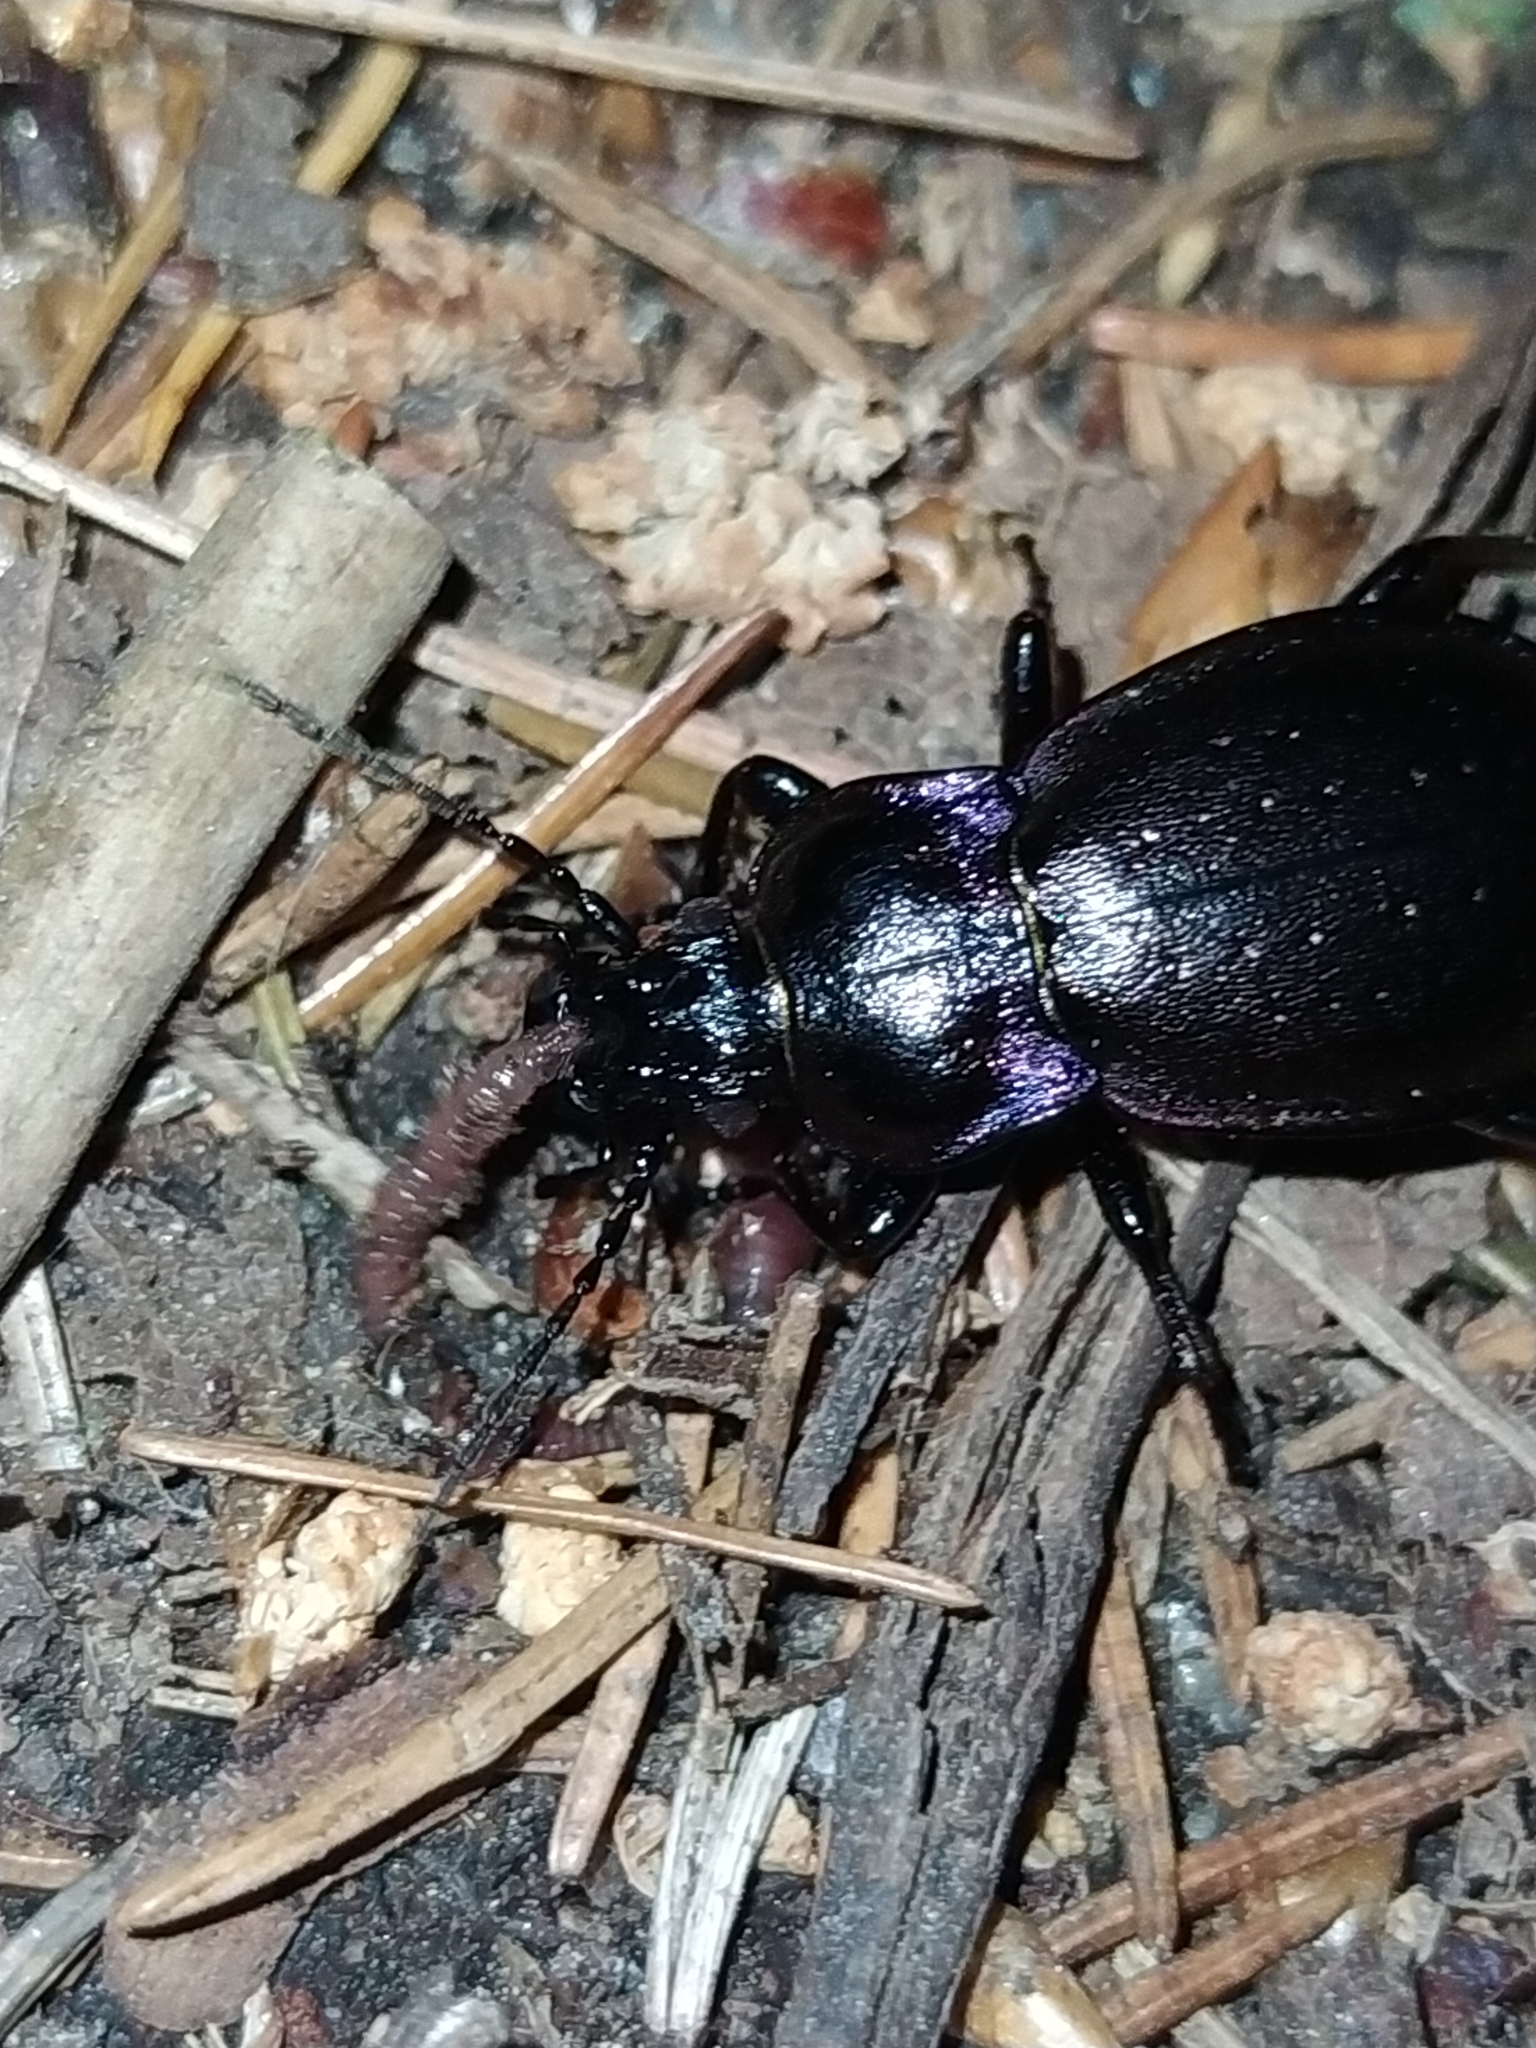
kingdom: Animalia
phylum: Arthropoda
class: Insecta
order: Coleoptera
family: Carabidae
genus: Carabus
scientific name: Carabus nemoralis
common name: European ground beetle
